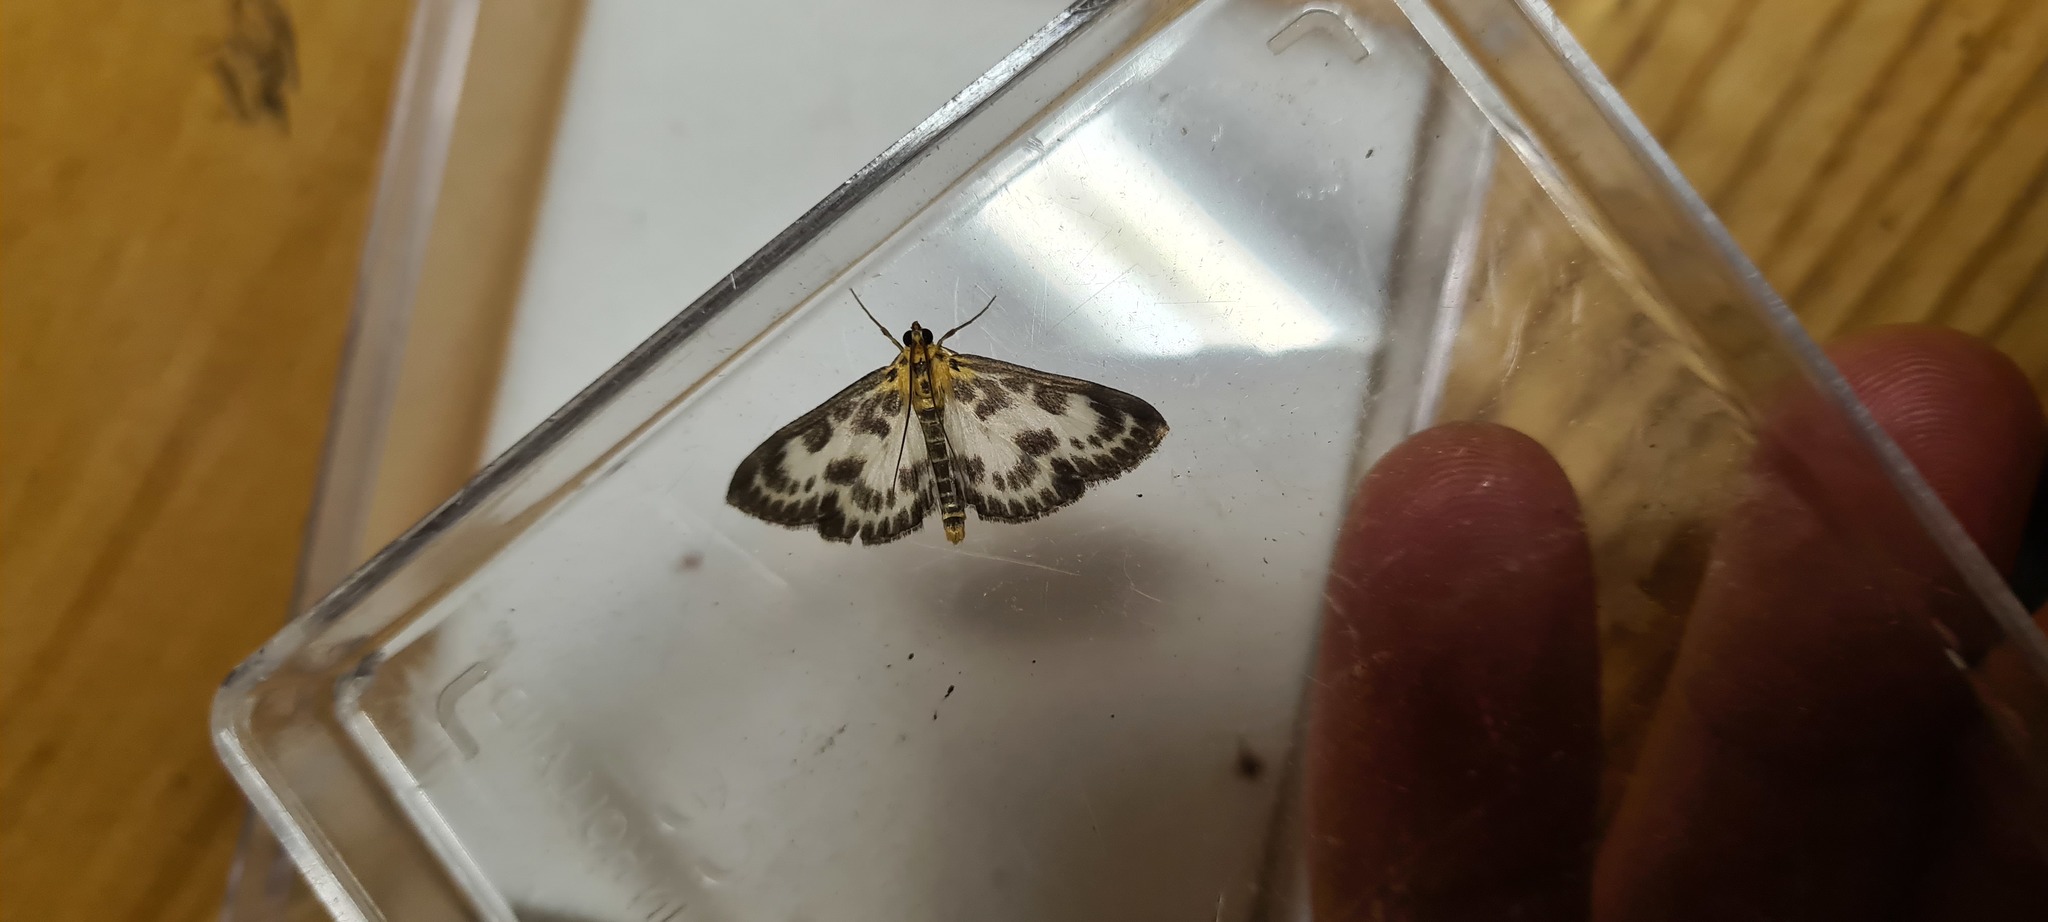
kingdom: Animalia
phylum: Arthropoda
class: Insecta
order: Lepidoptera
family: Crambidae
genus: Anania
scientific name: Anania hortulata
